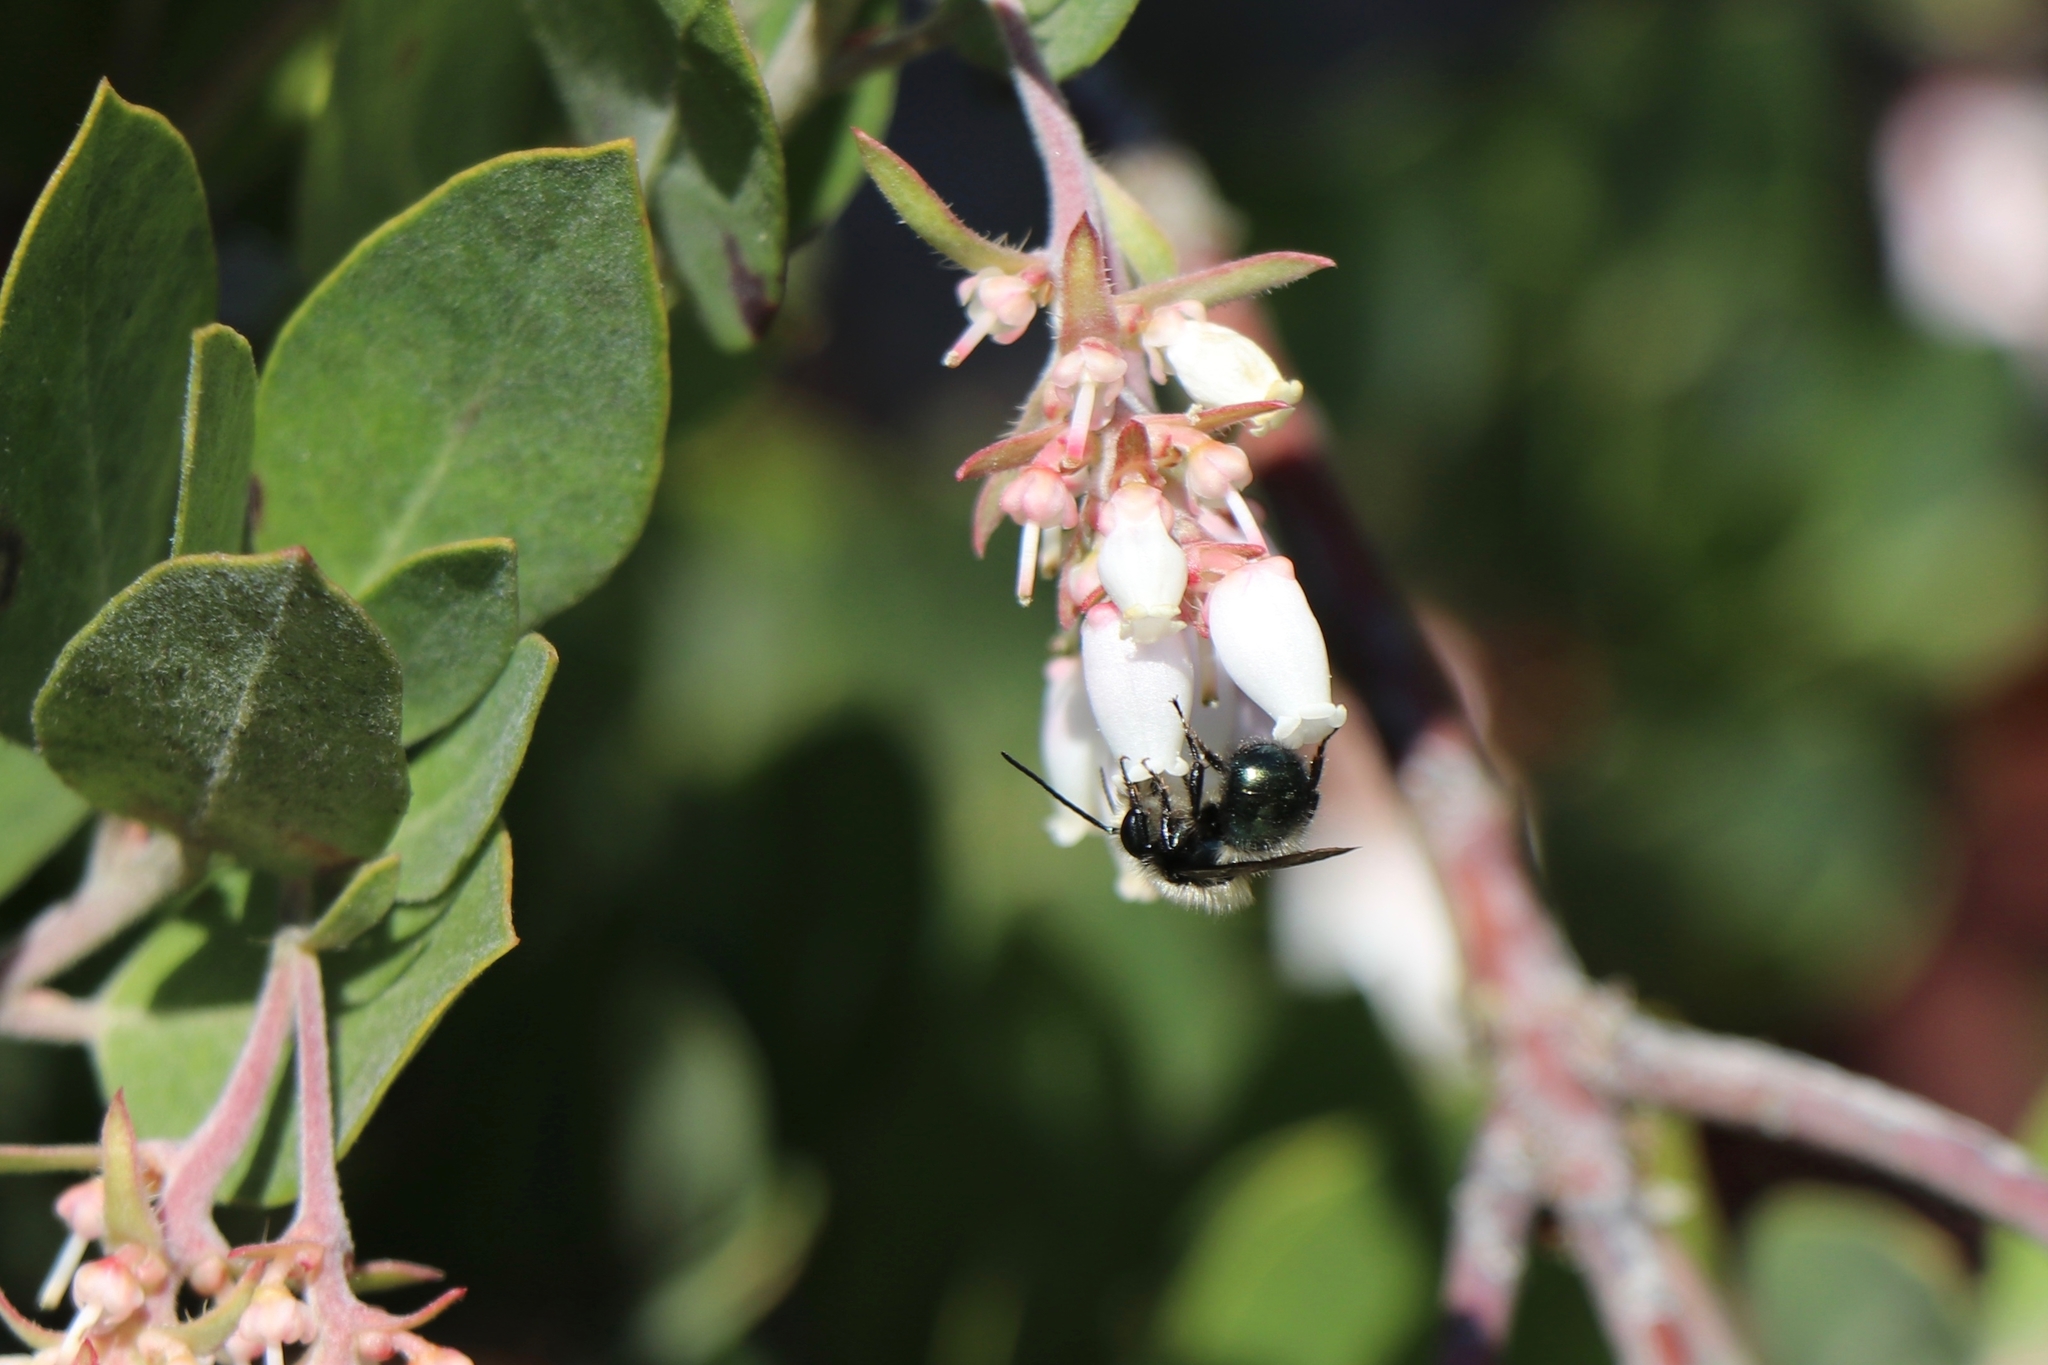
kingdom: Animalia
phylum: Arthropoda
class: Insecta
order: Hymenoptera
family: Megachilidae
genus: Osmia
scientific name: Osmia lignaria
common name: Blue orchard bee
